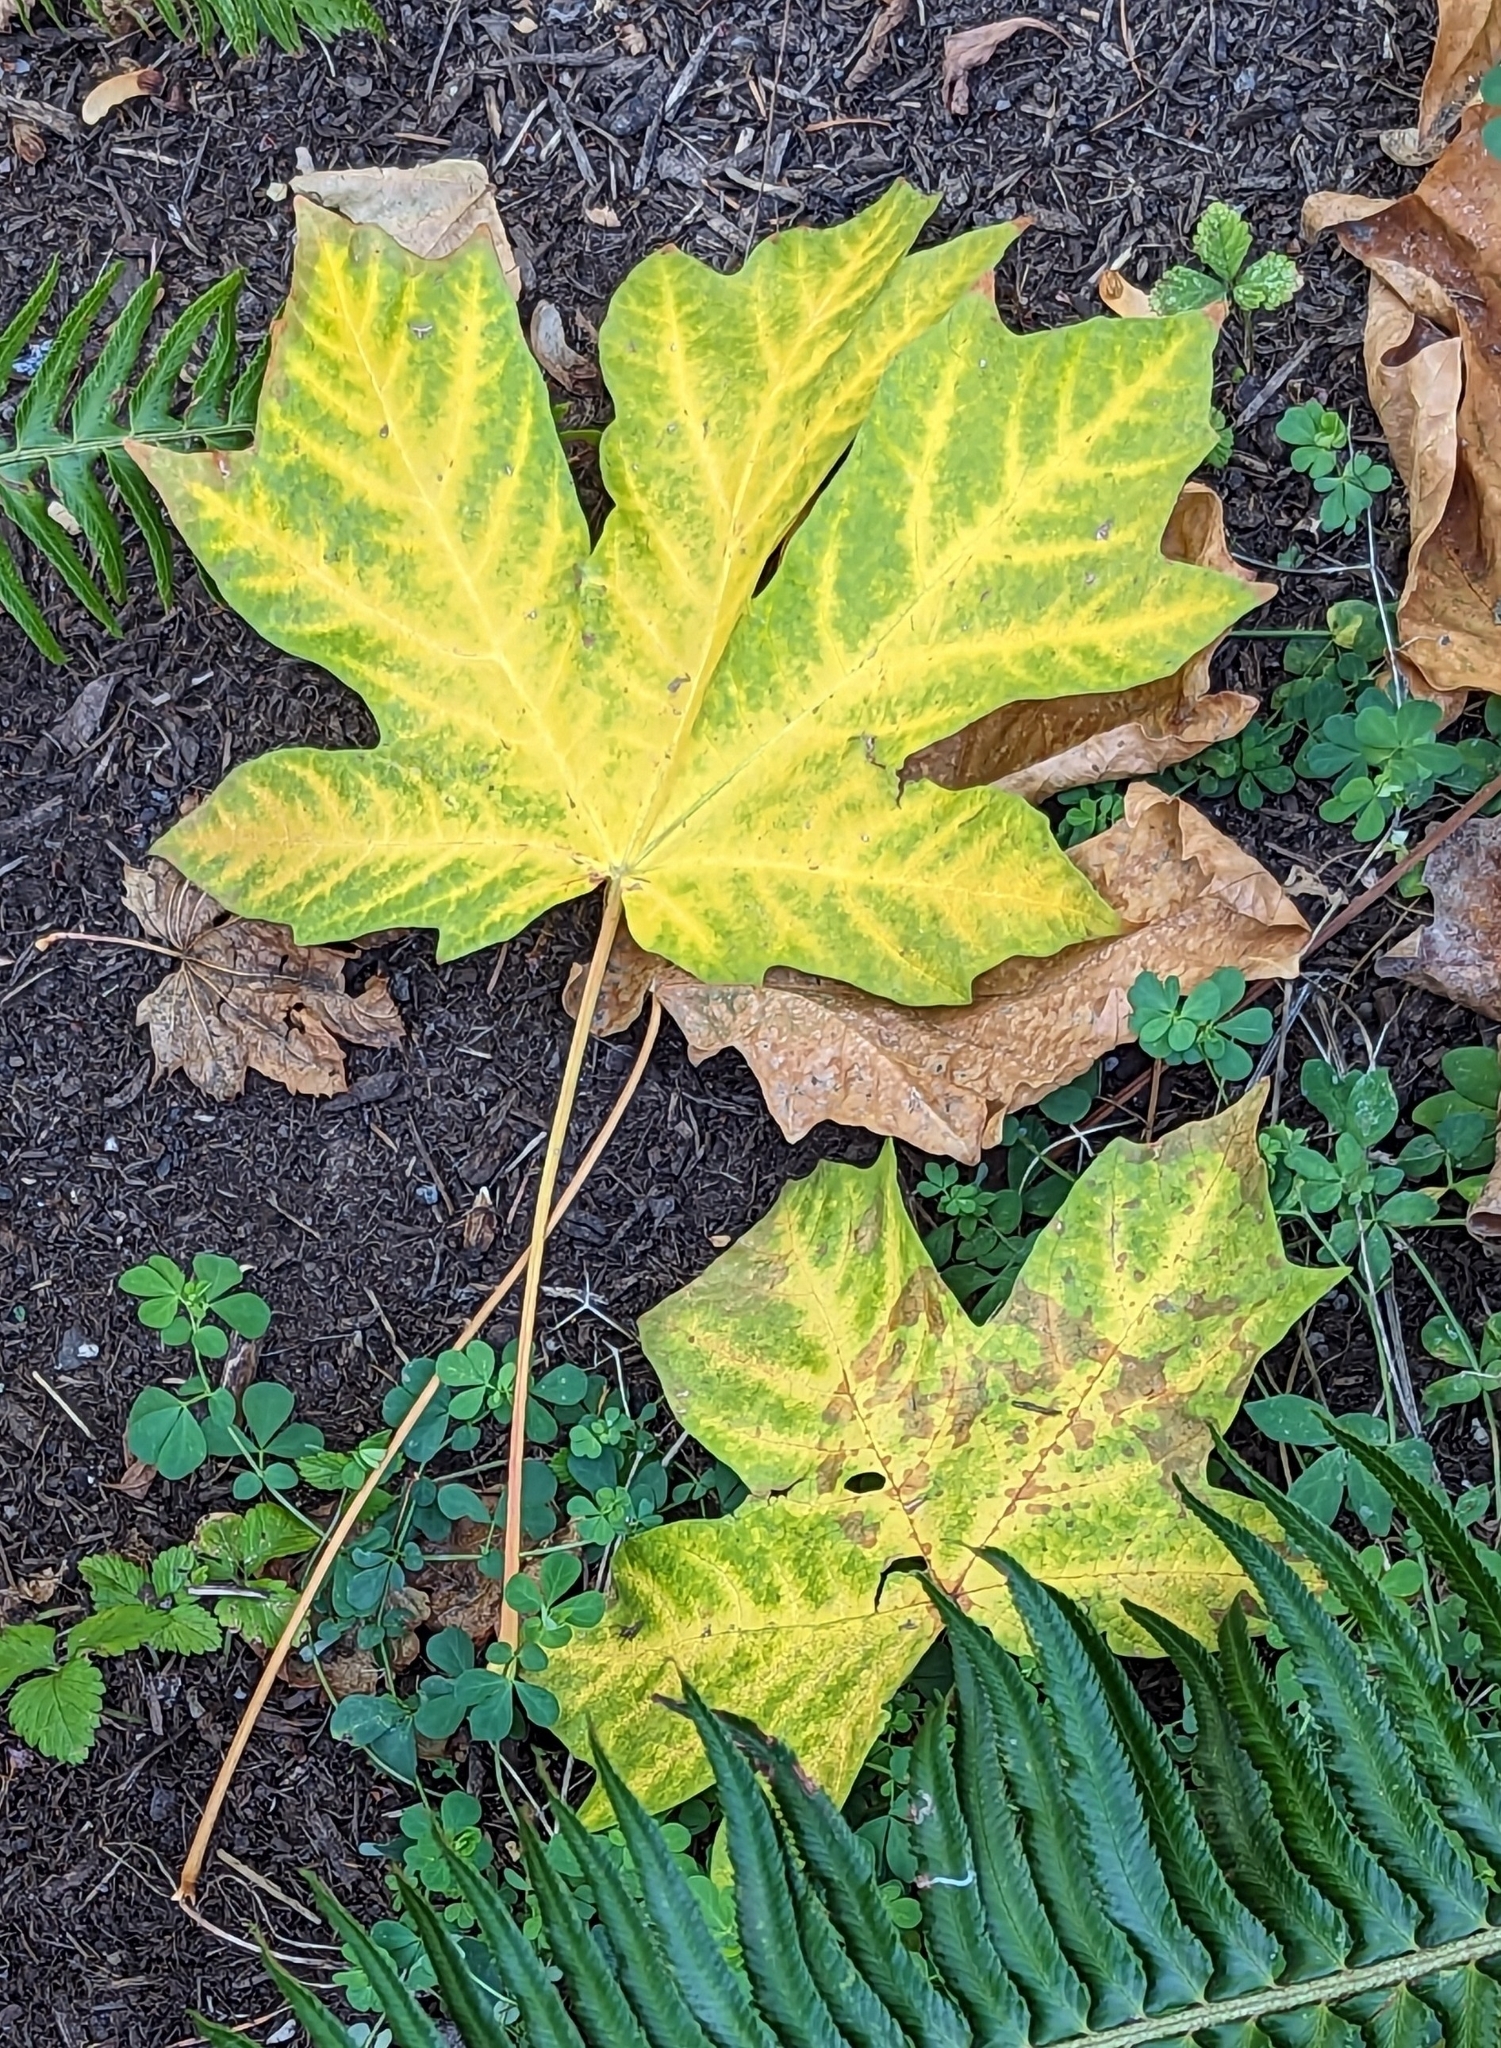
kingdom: Plantae
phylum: Tracheophyta
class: Magnoliopsida
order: Sapindales
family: Sapindaceae
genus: Acer
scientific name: Acer macrophyllum
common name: Oregon maple
